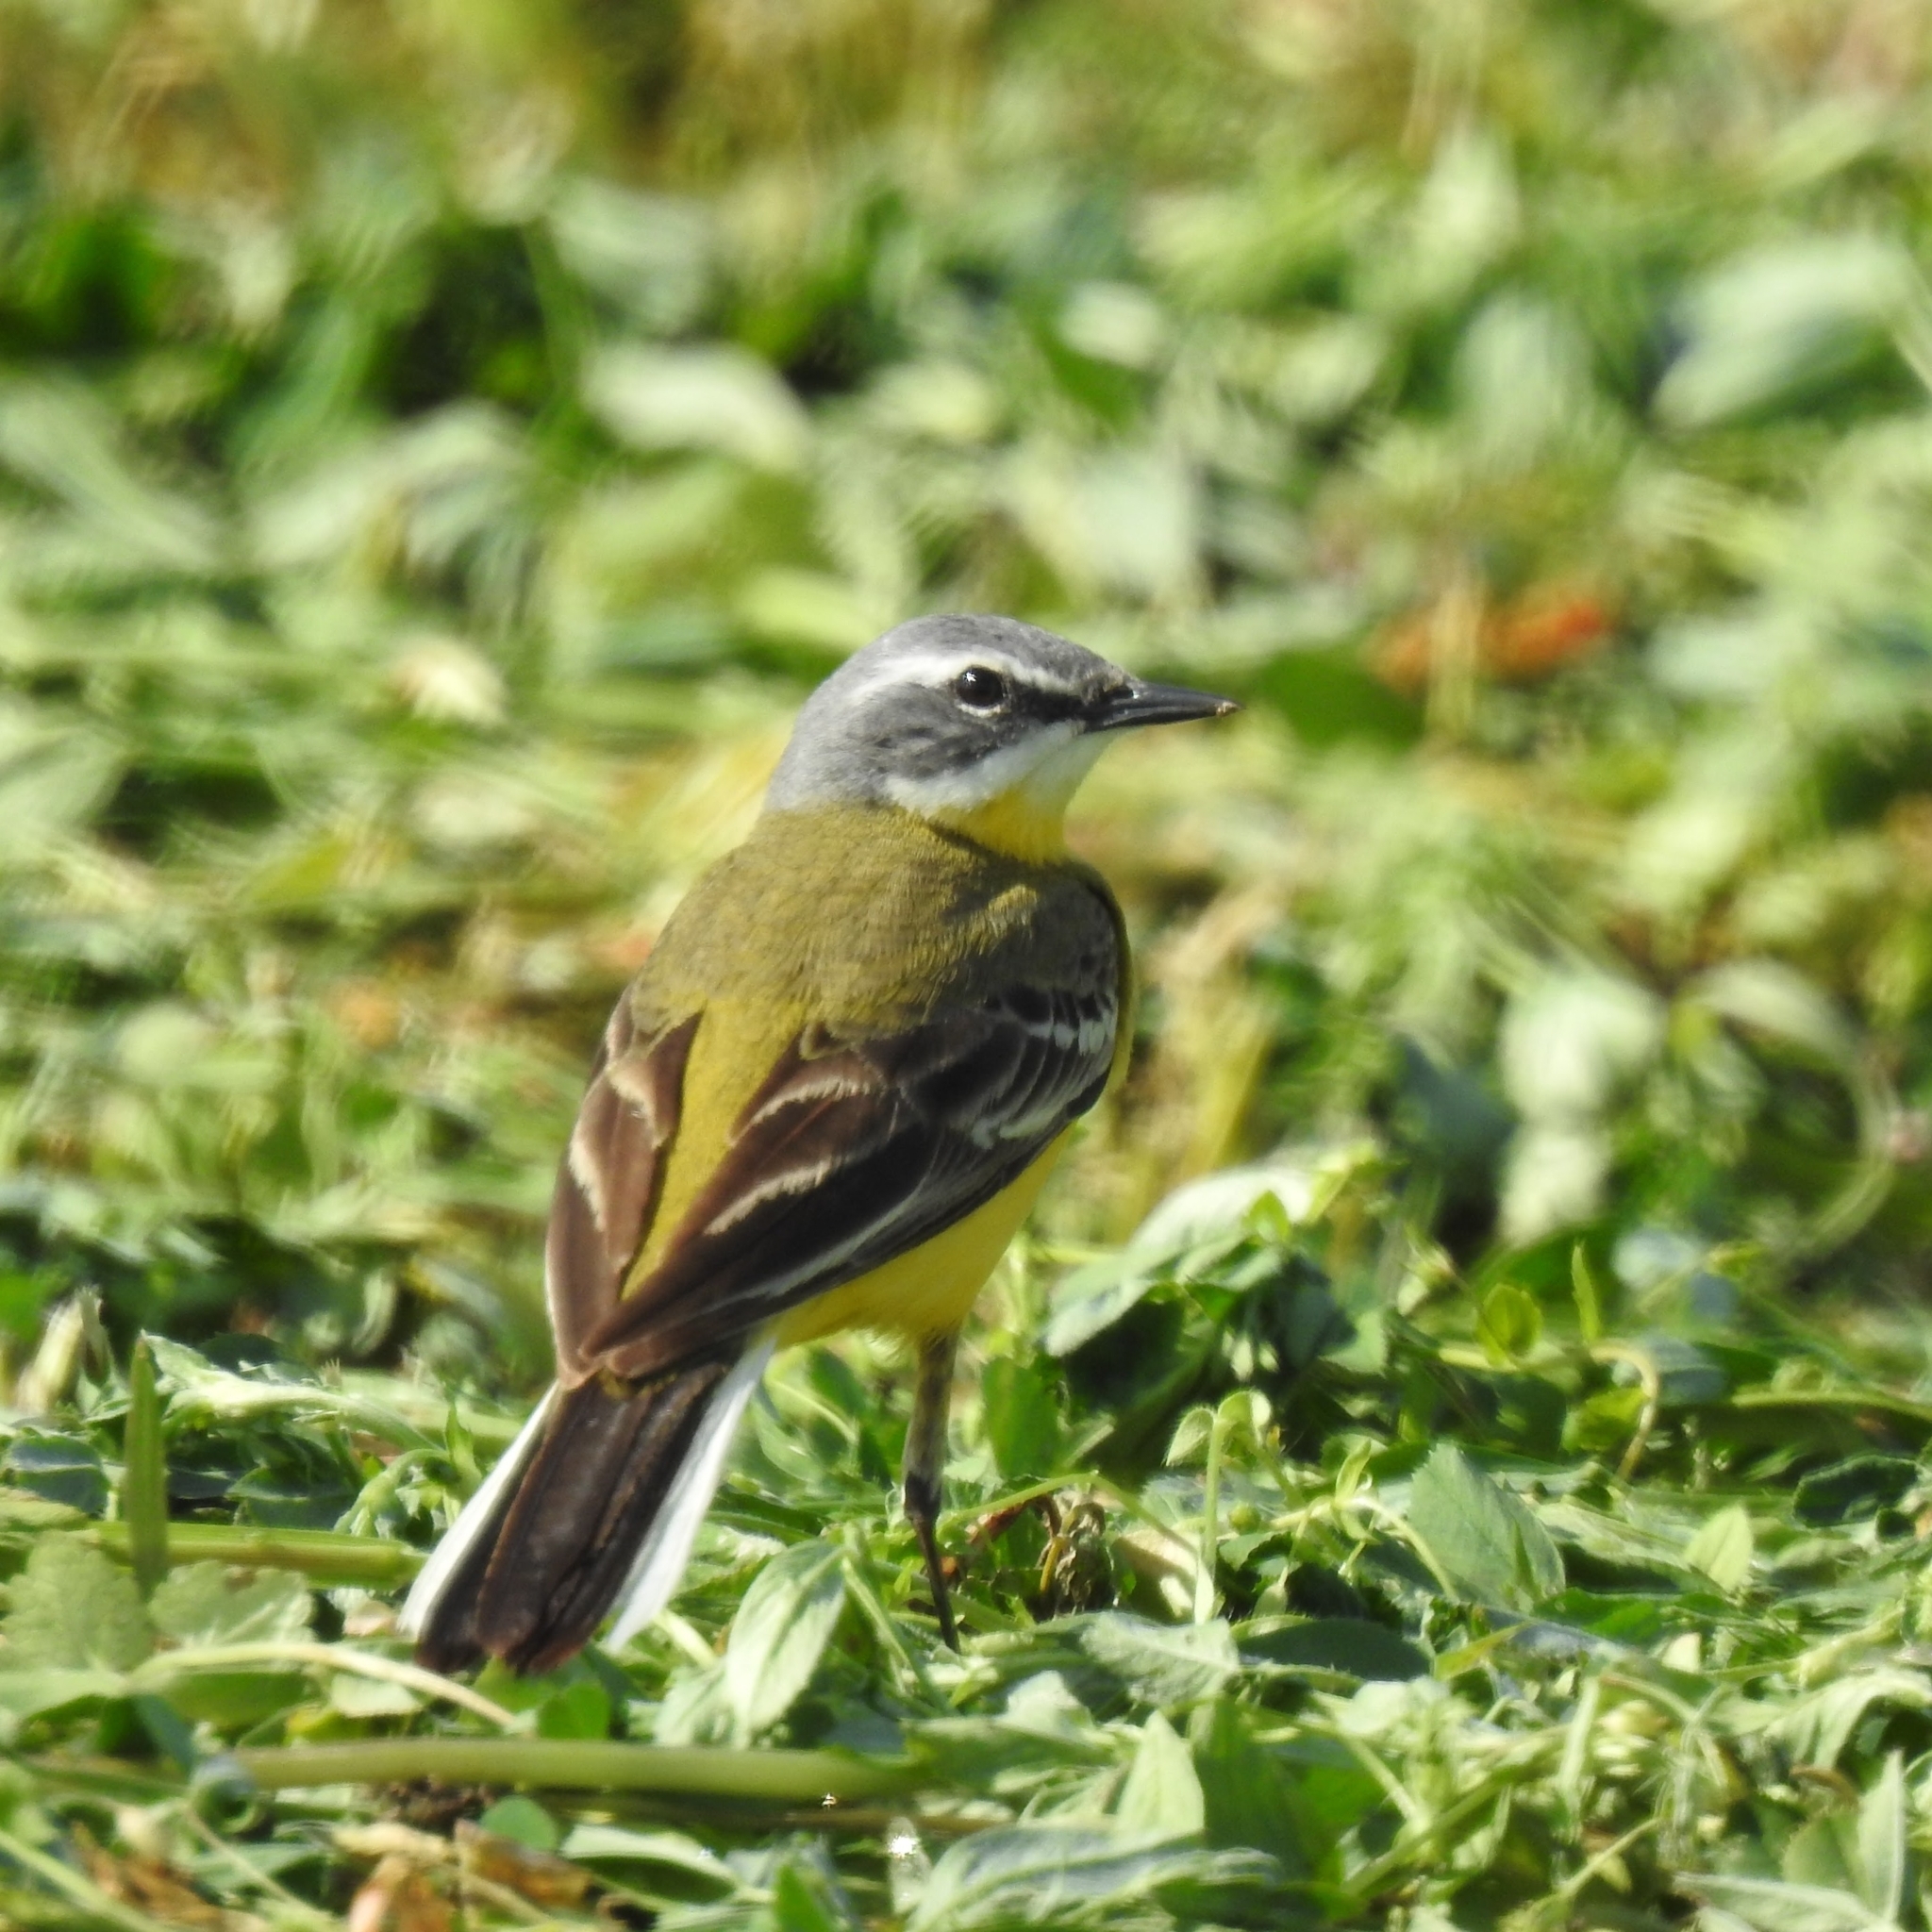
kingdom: Animalia
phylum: Chordata
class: Aves
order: Passeriformes
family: Motacillidae
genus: Motacilla
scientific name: Motacilla flava
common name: Western yellow wagtail
